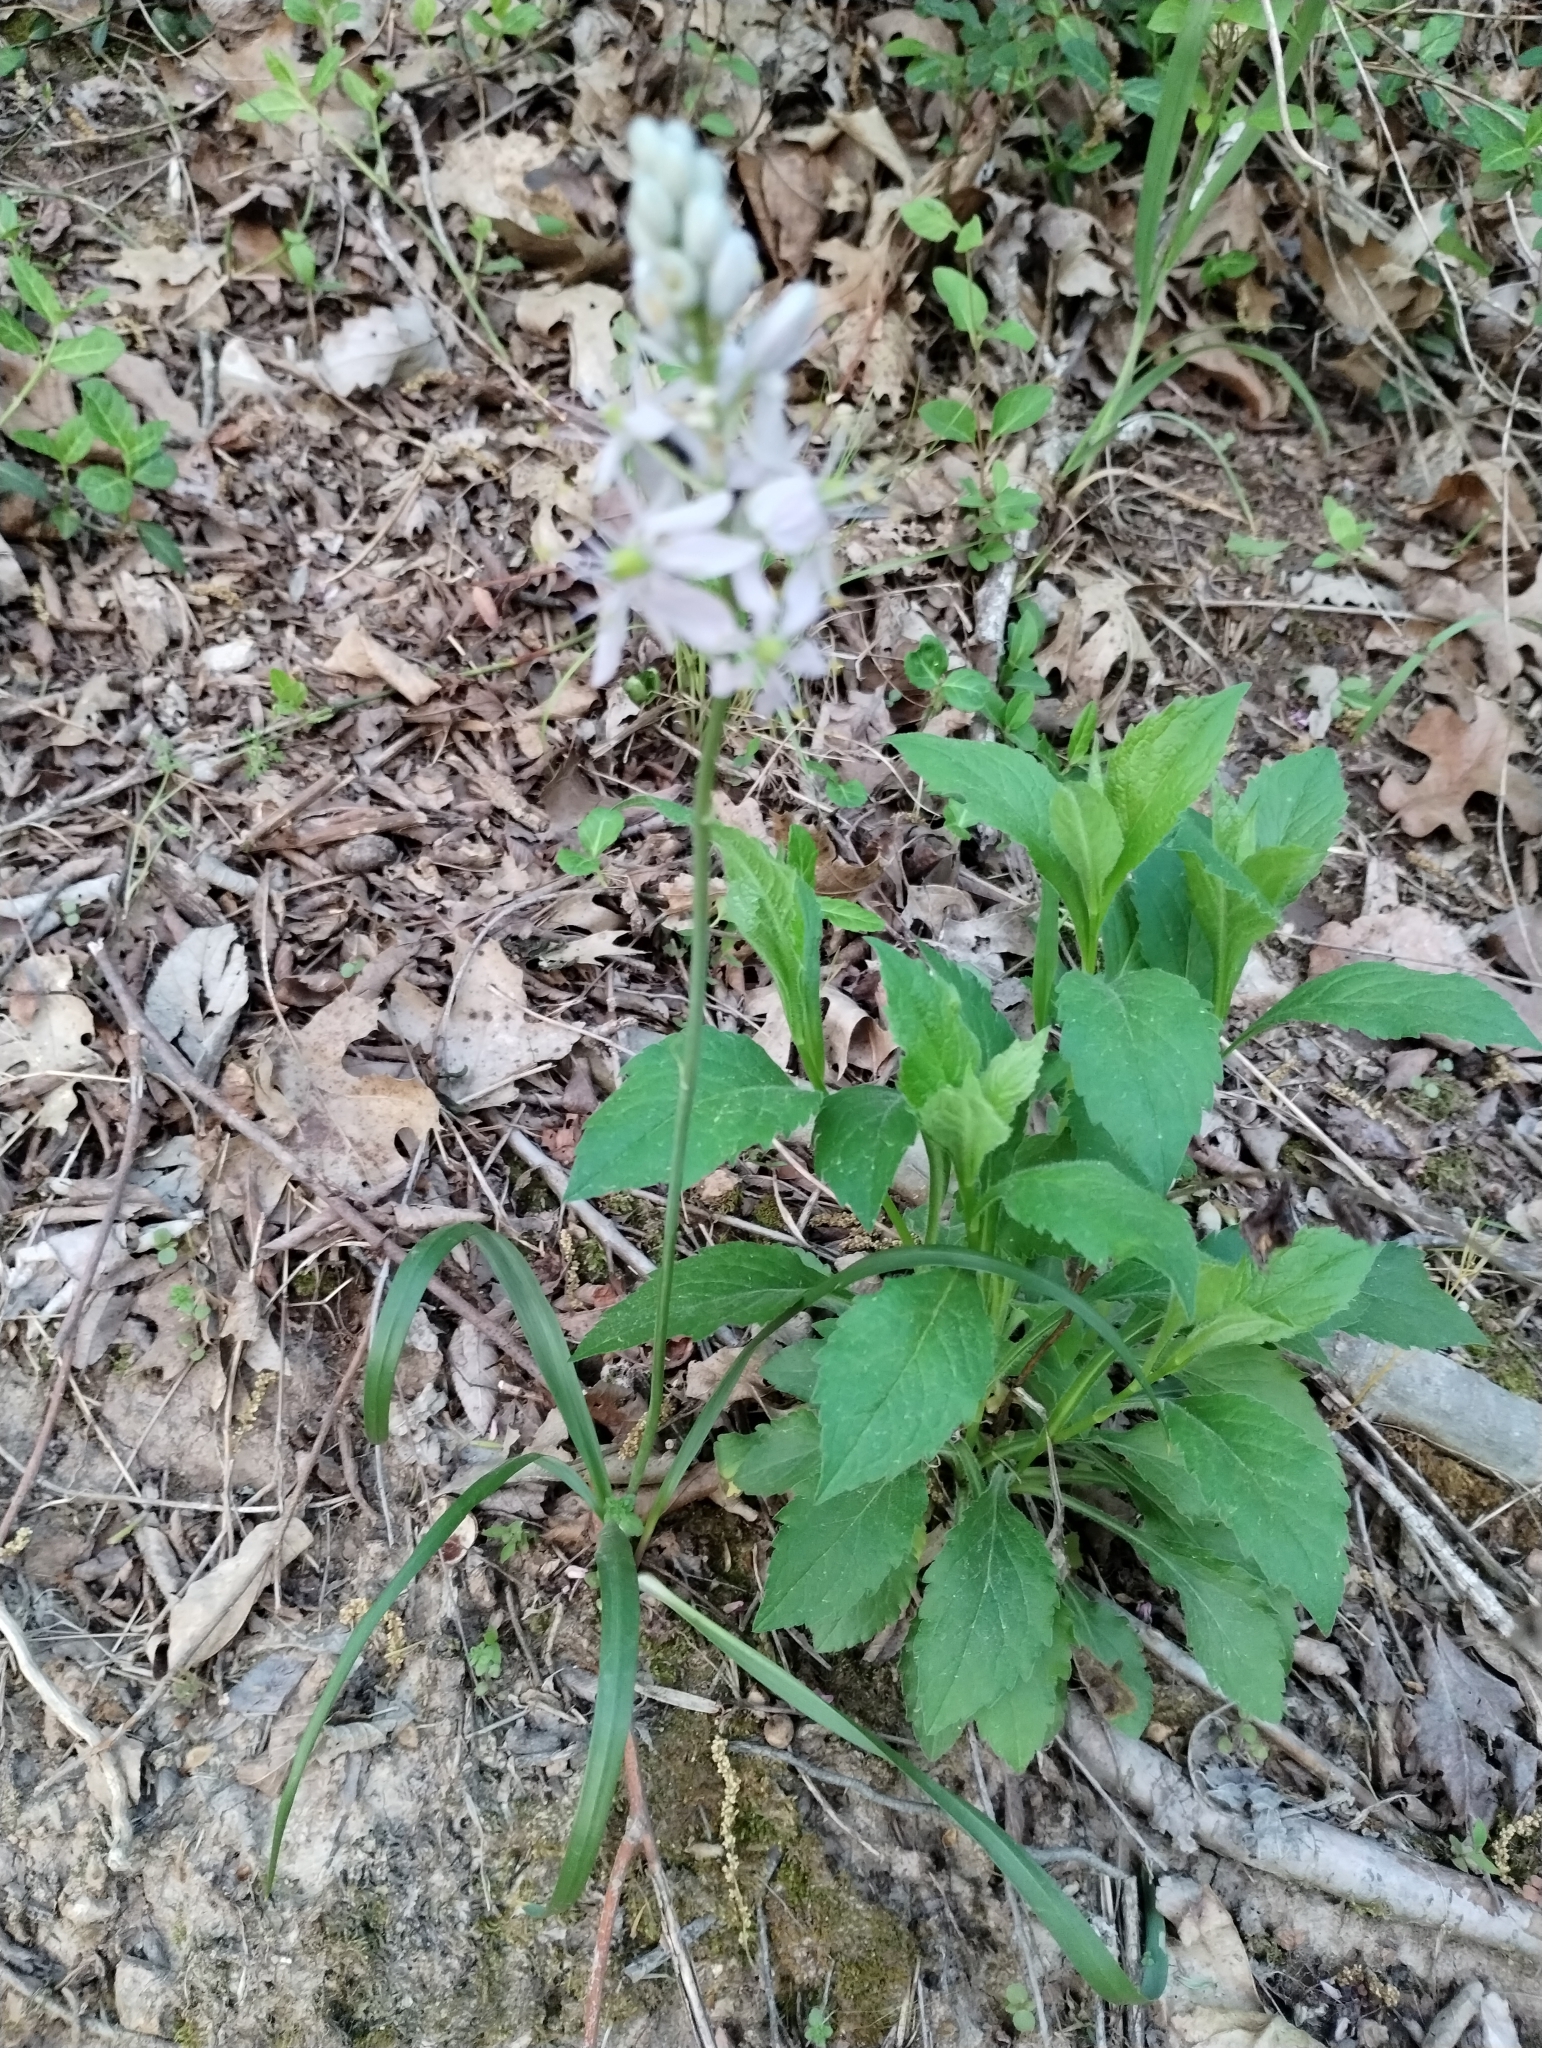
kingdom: Plantae
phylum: Tracheophyta
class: Liliopsida
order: Asparagales
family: Asparagaceae
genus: Camassia
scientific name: Camassia scilloides
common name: Wild hyacinth
